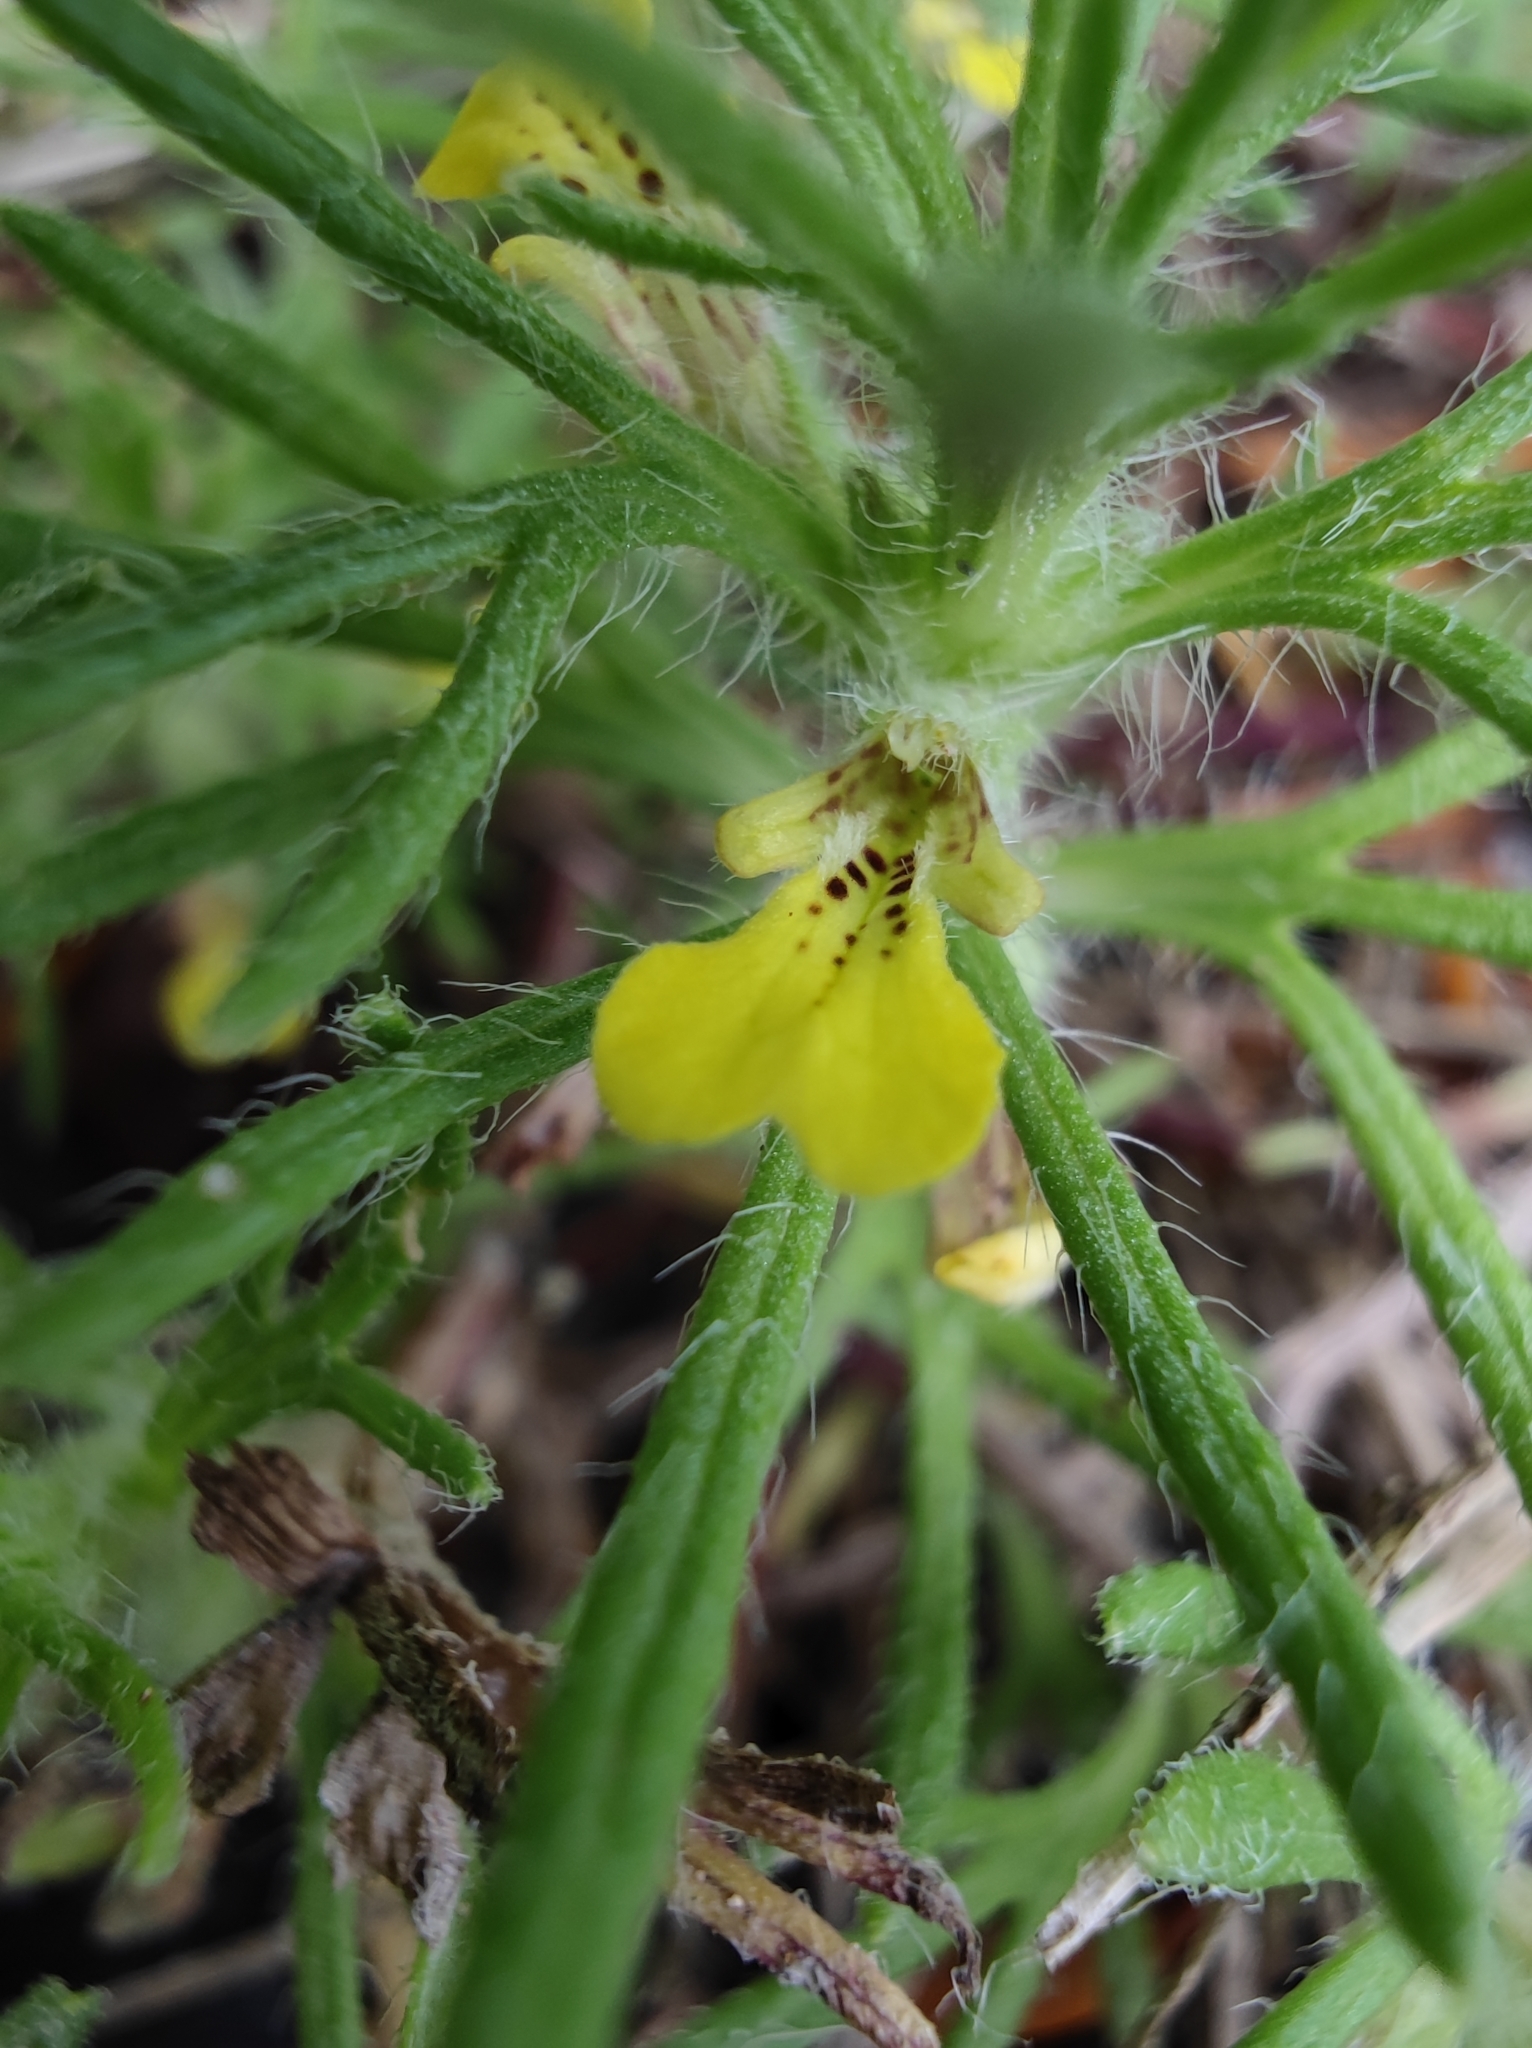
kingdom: Plantae
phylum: Tracheophyta
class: Magnoliopsida
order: Lamiales
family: Lamiaceae
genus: Ajuga
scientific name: Ajuga chamaepitys
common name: Ground-pine
